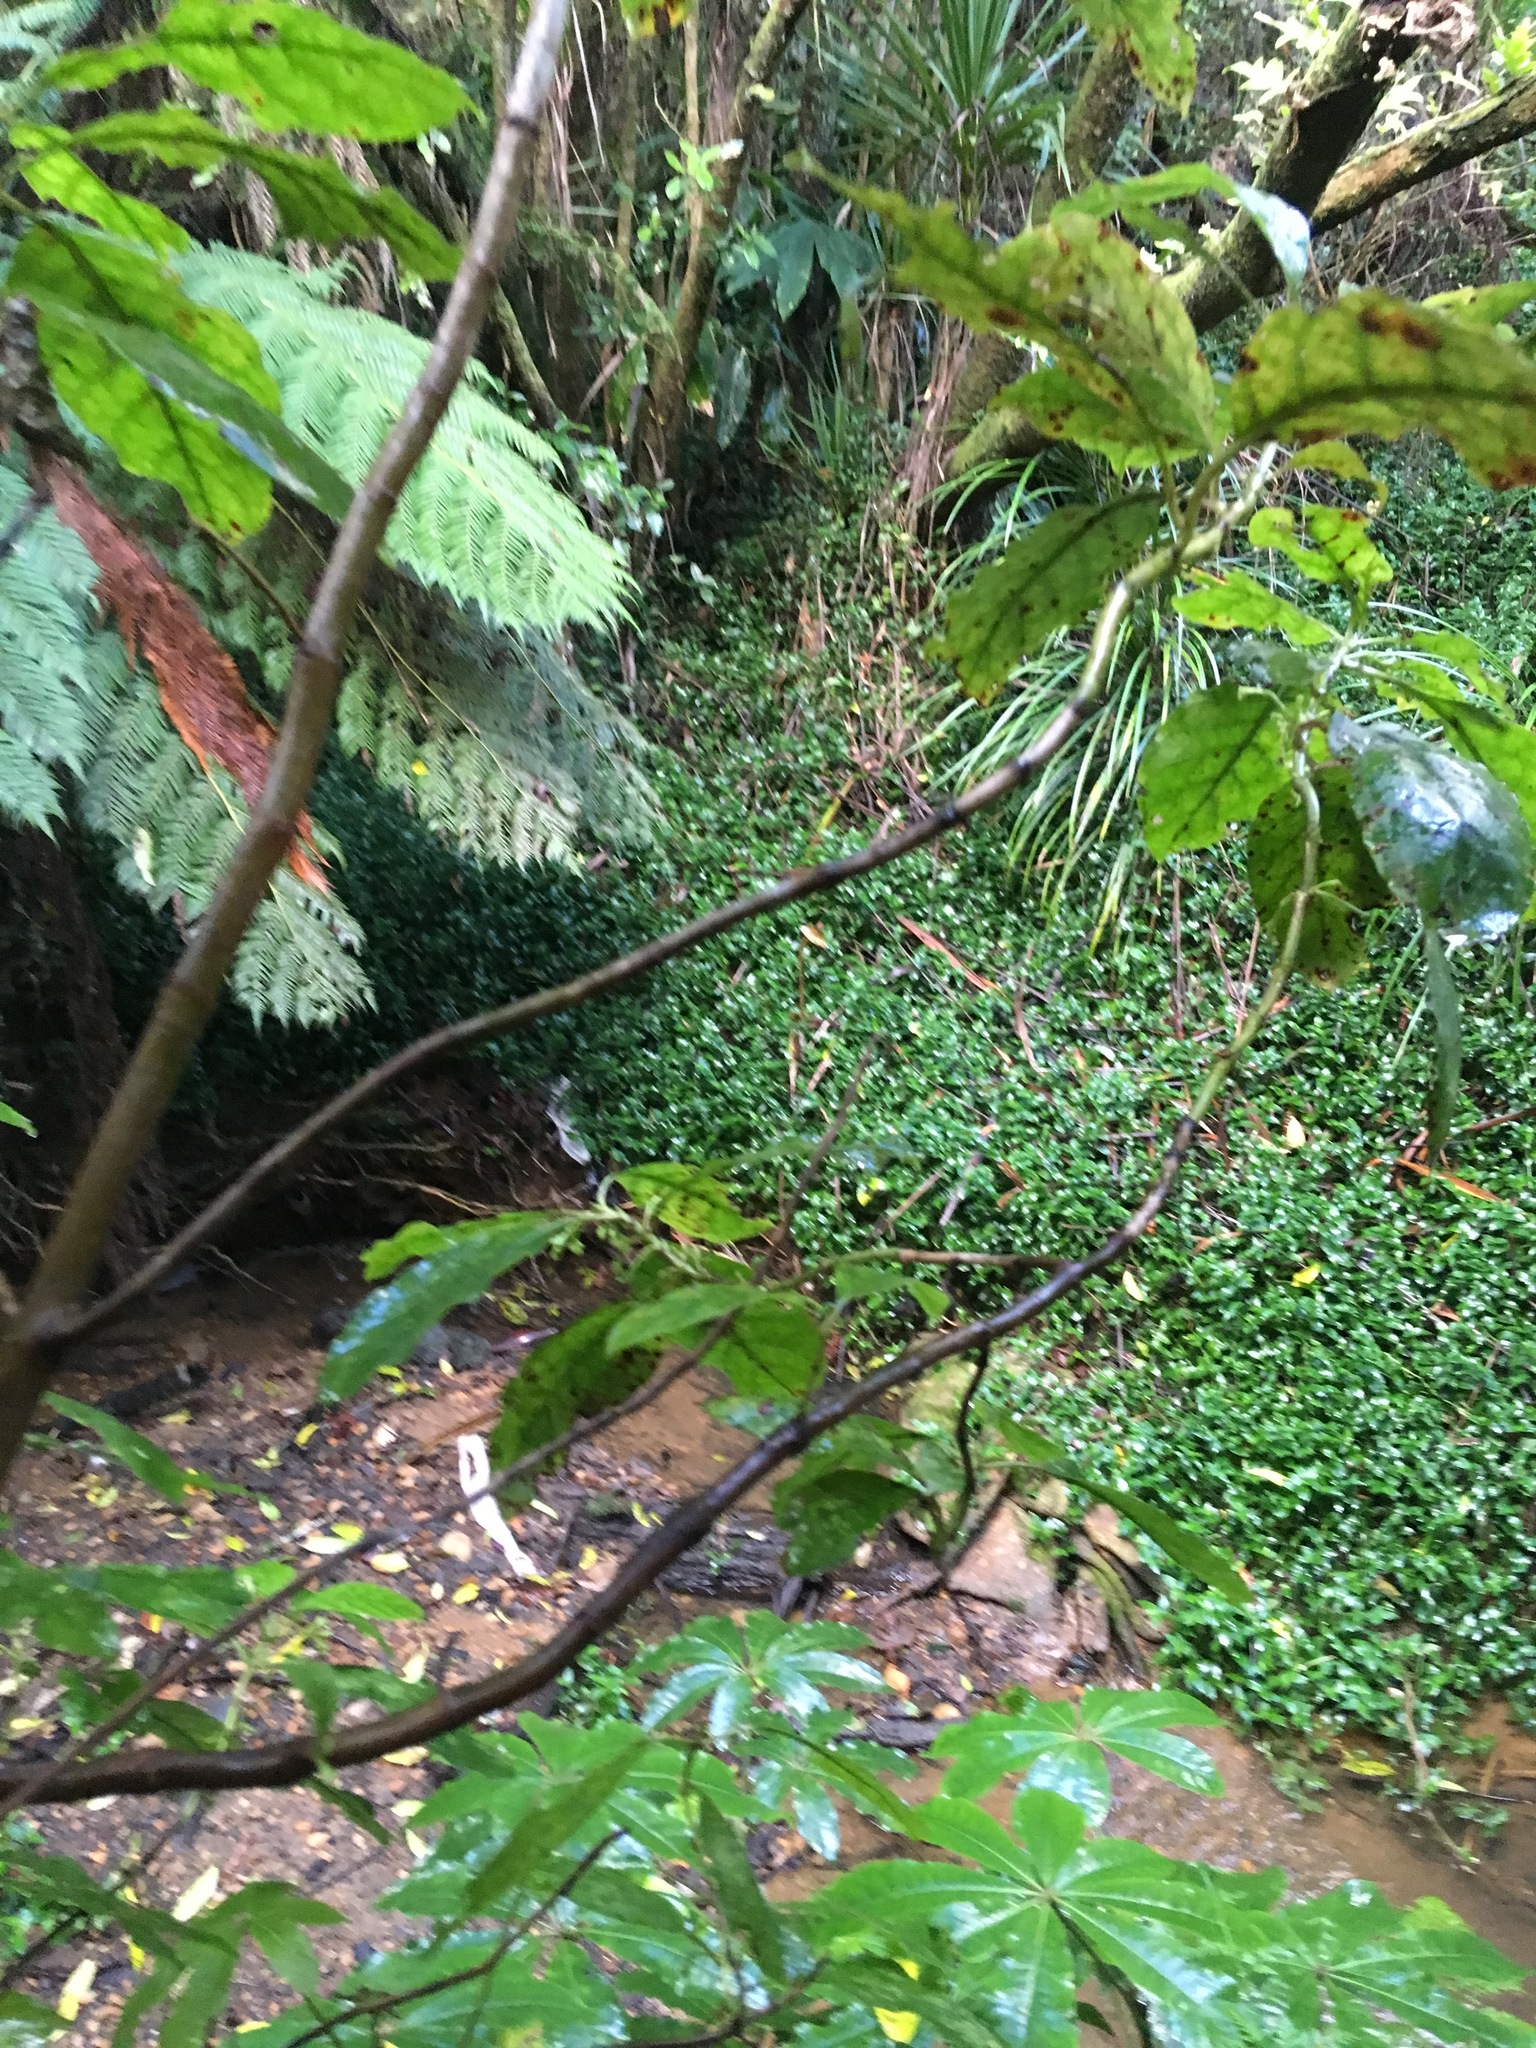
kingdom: Plantae
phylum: Tracheophyta
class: Liliopsida
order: Commelinales
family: Commelinaceae
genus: Tradescantia
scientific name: Tradescantia fluminensis
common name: Wandering-jew
